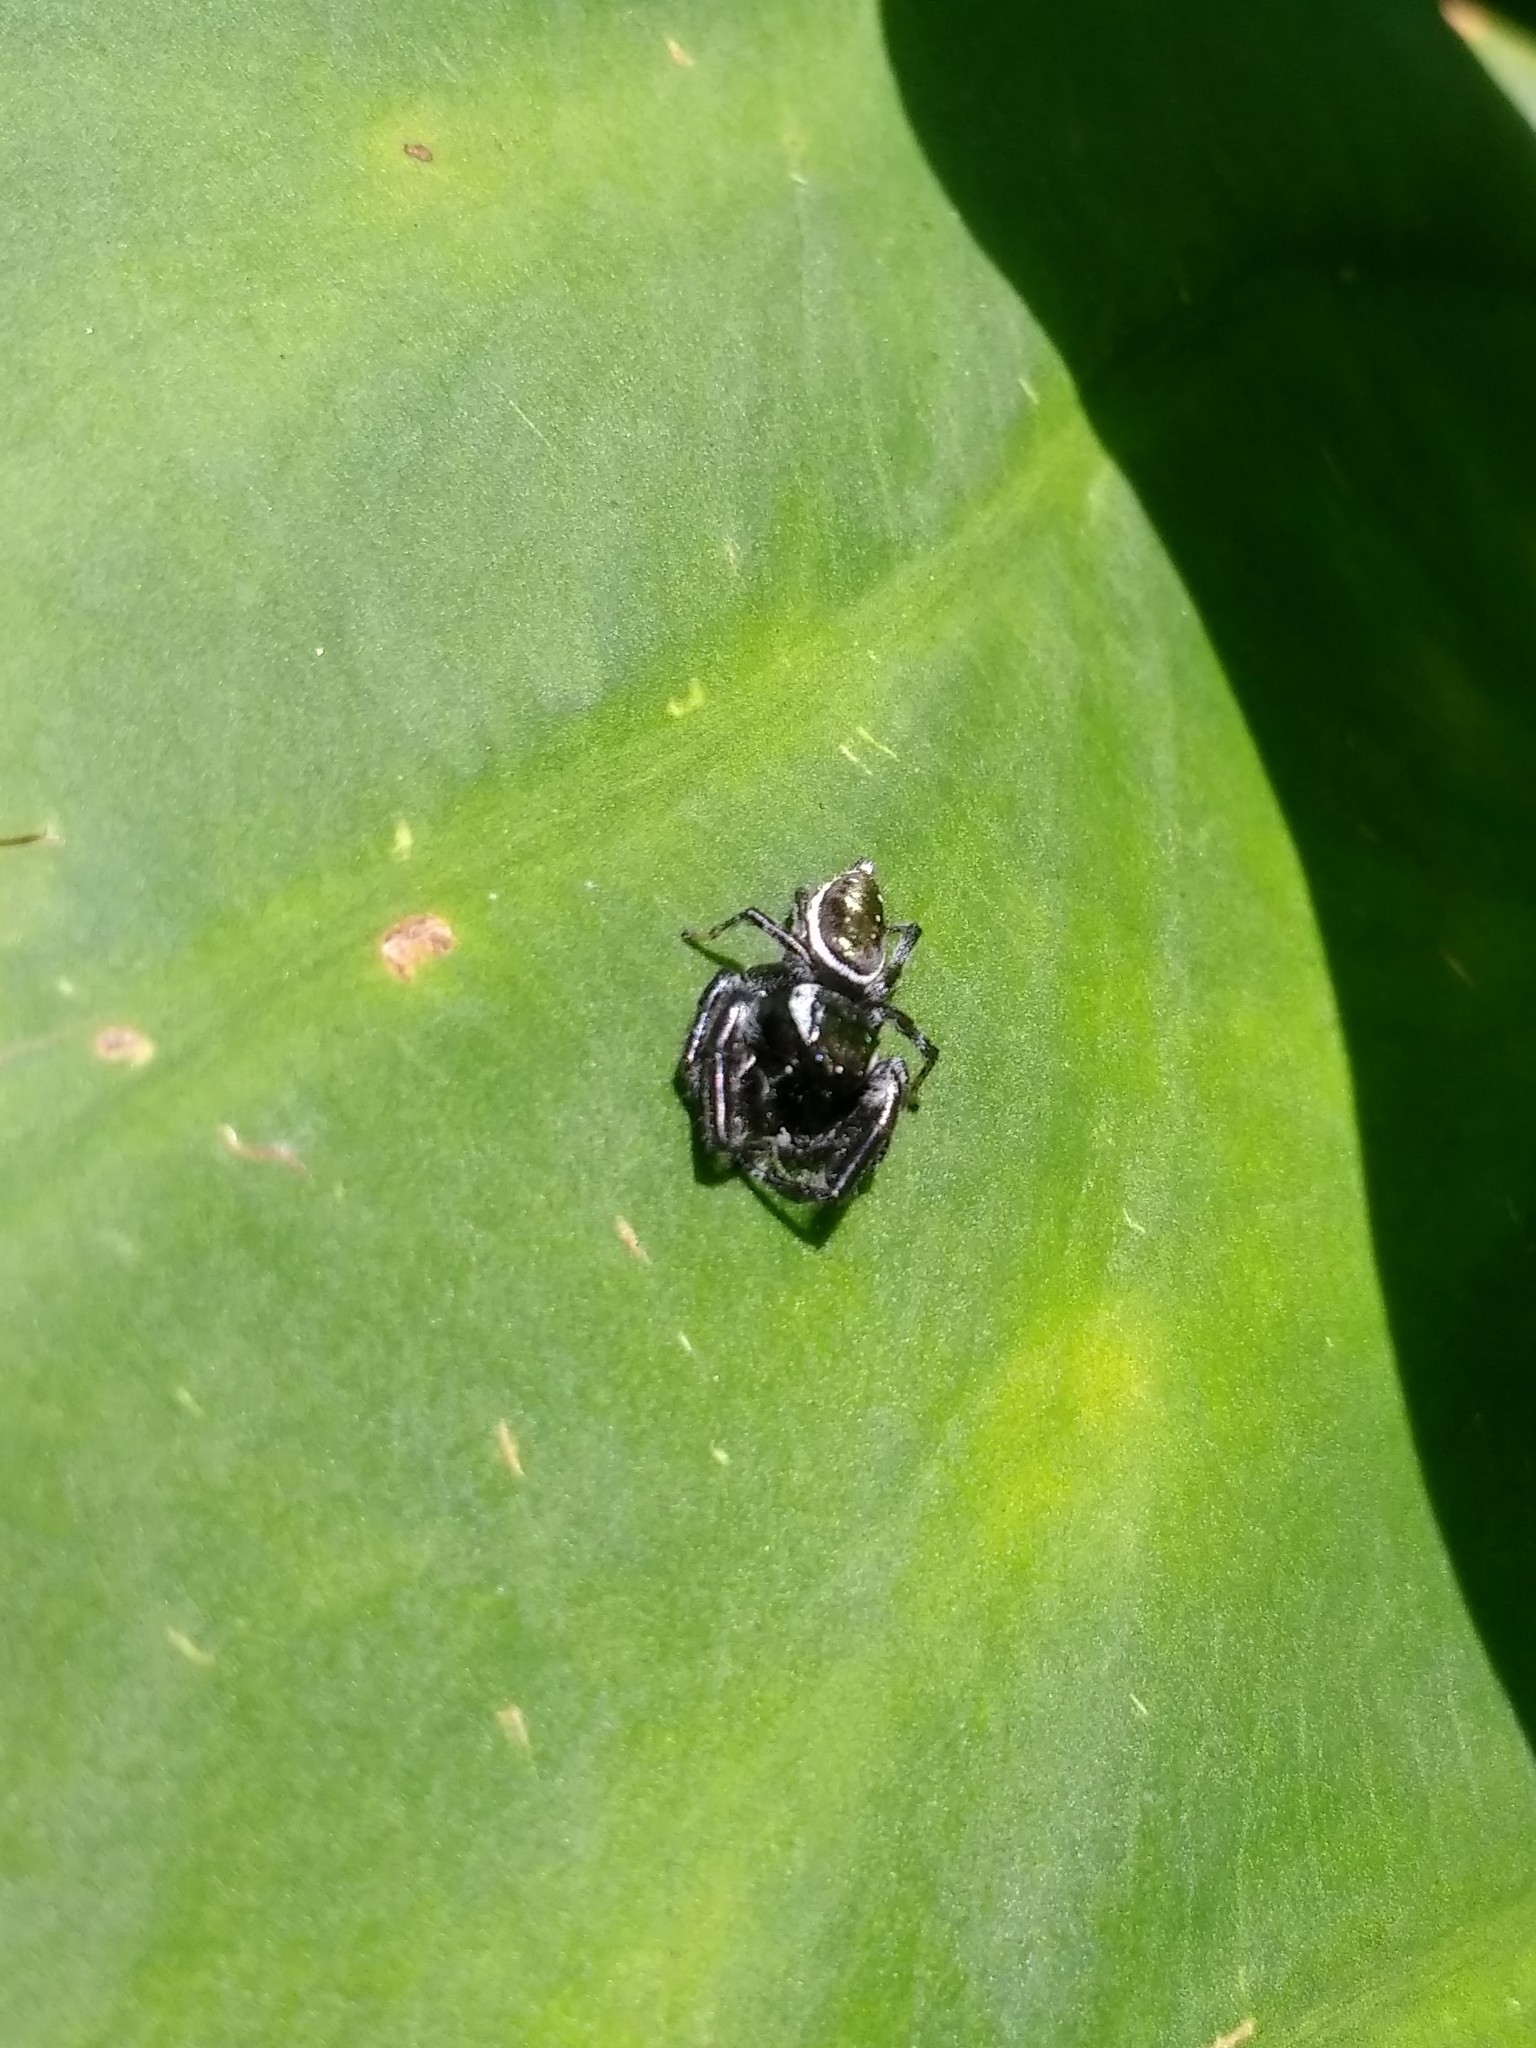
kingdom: Animalia
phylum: Arthropoda
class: Arachnida
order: Araneae
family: Salticidae
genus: Paraphidippus
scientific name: Paraphidippus aurantius
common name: Jumping spiders
